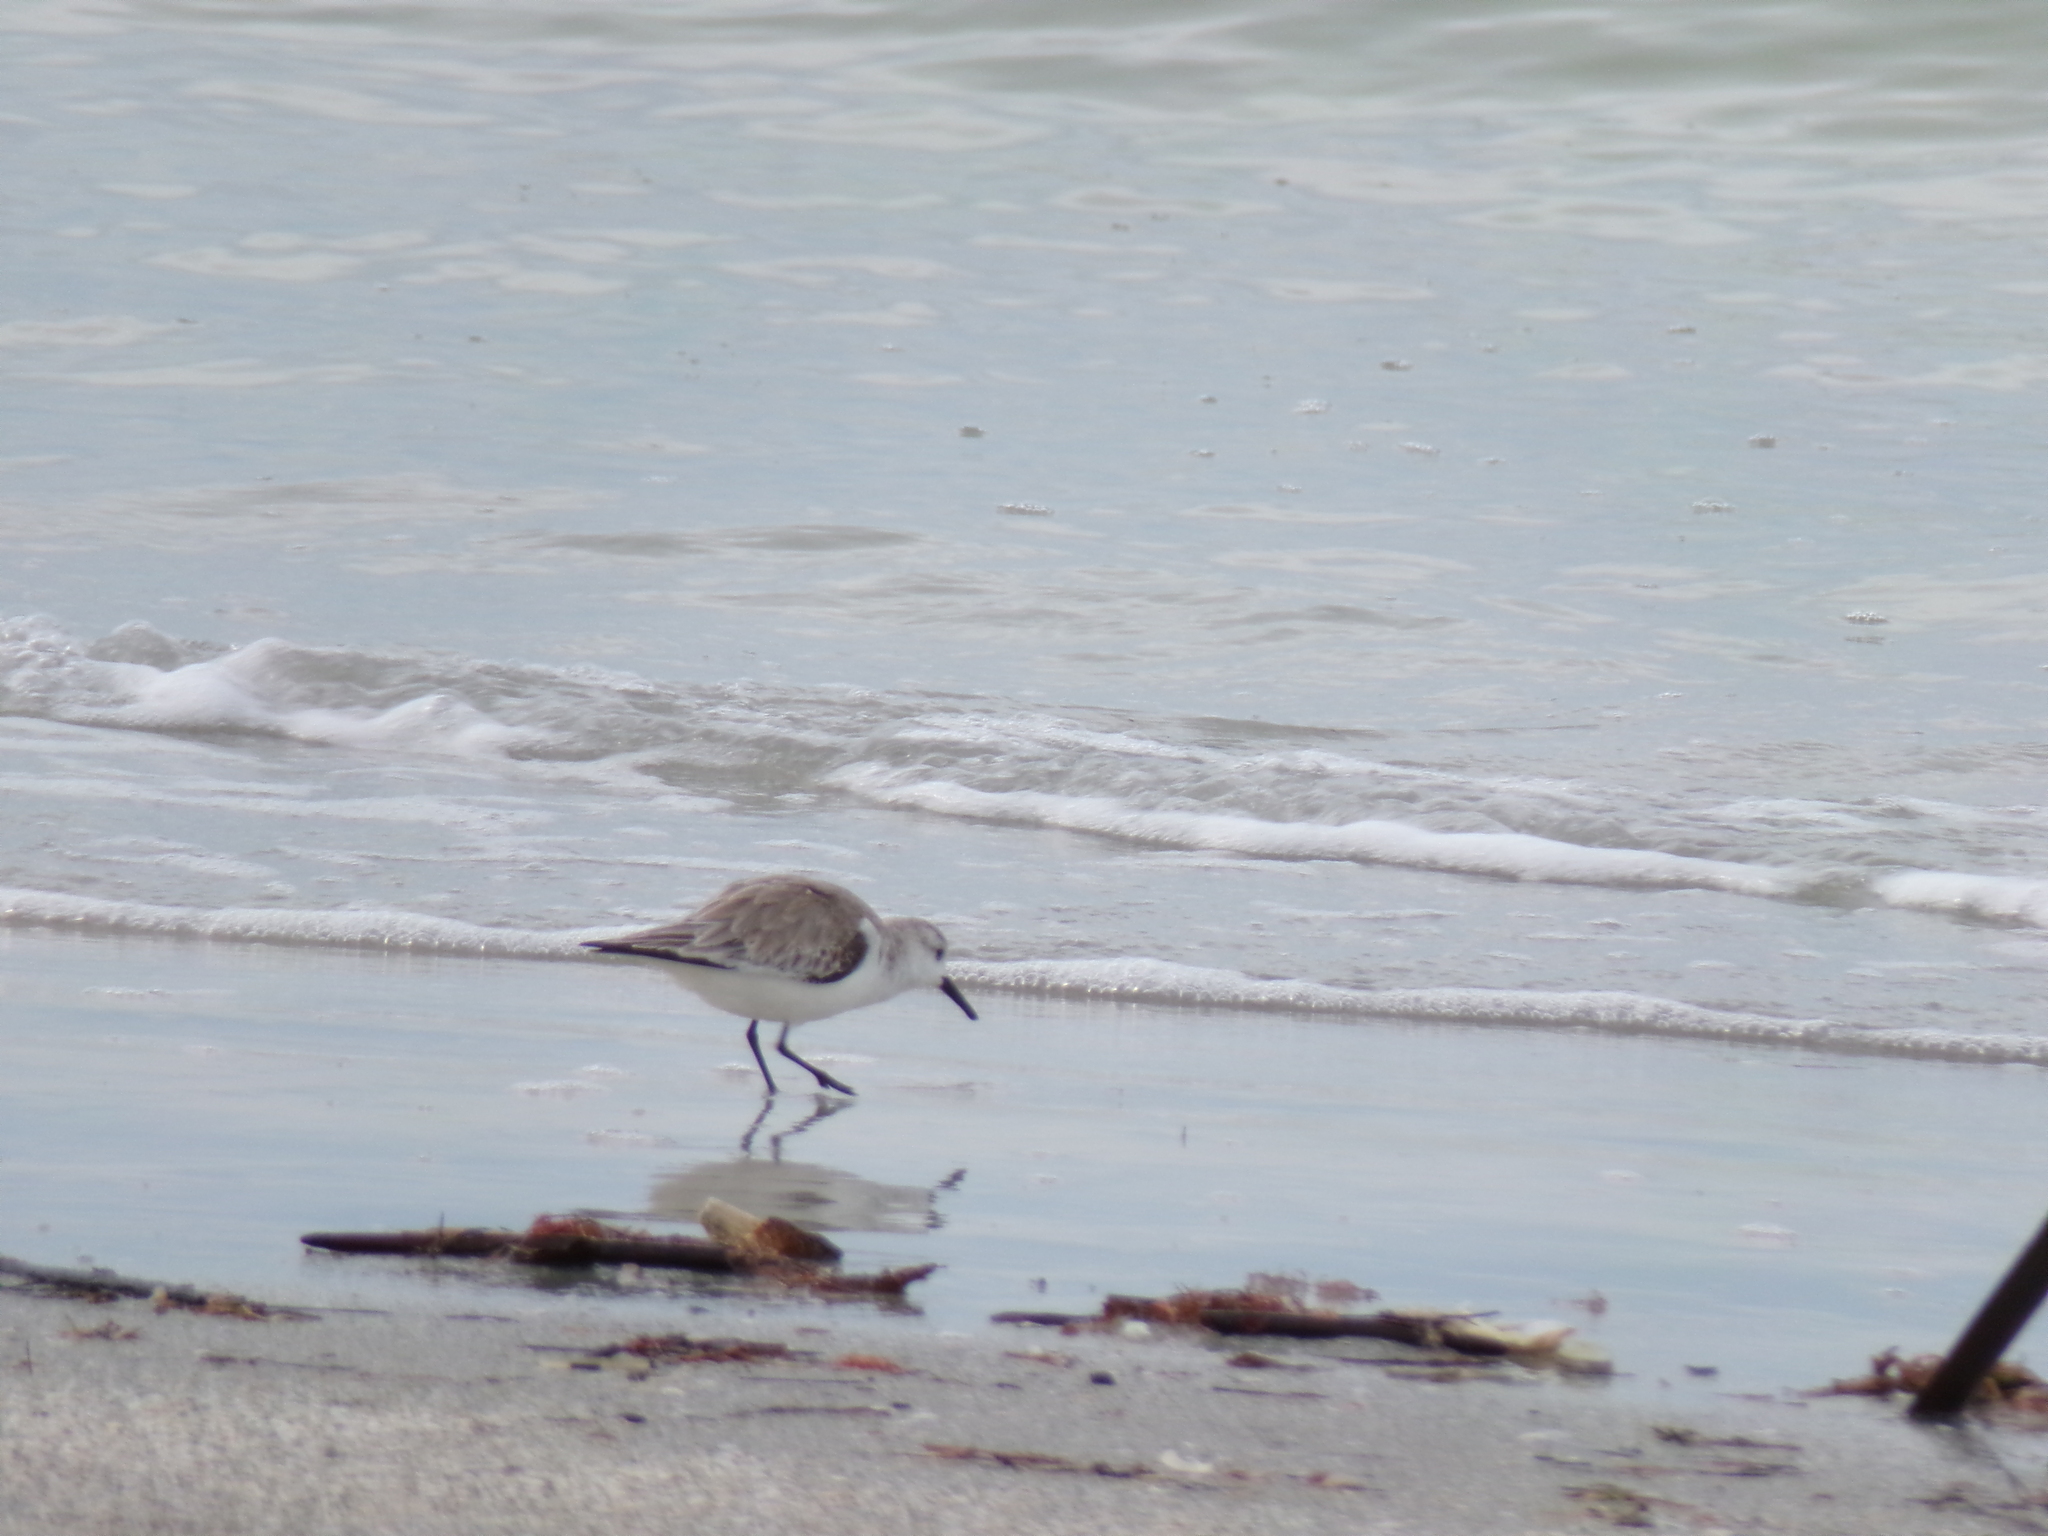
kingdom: Animalia
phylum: Chordata
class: Aves
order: Charadriiformes
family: Scolopacidae
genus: Calidris
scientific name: Calidris alba
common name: Sanderling
